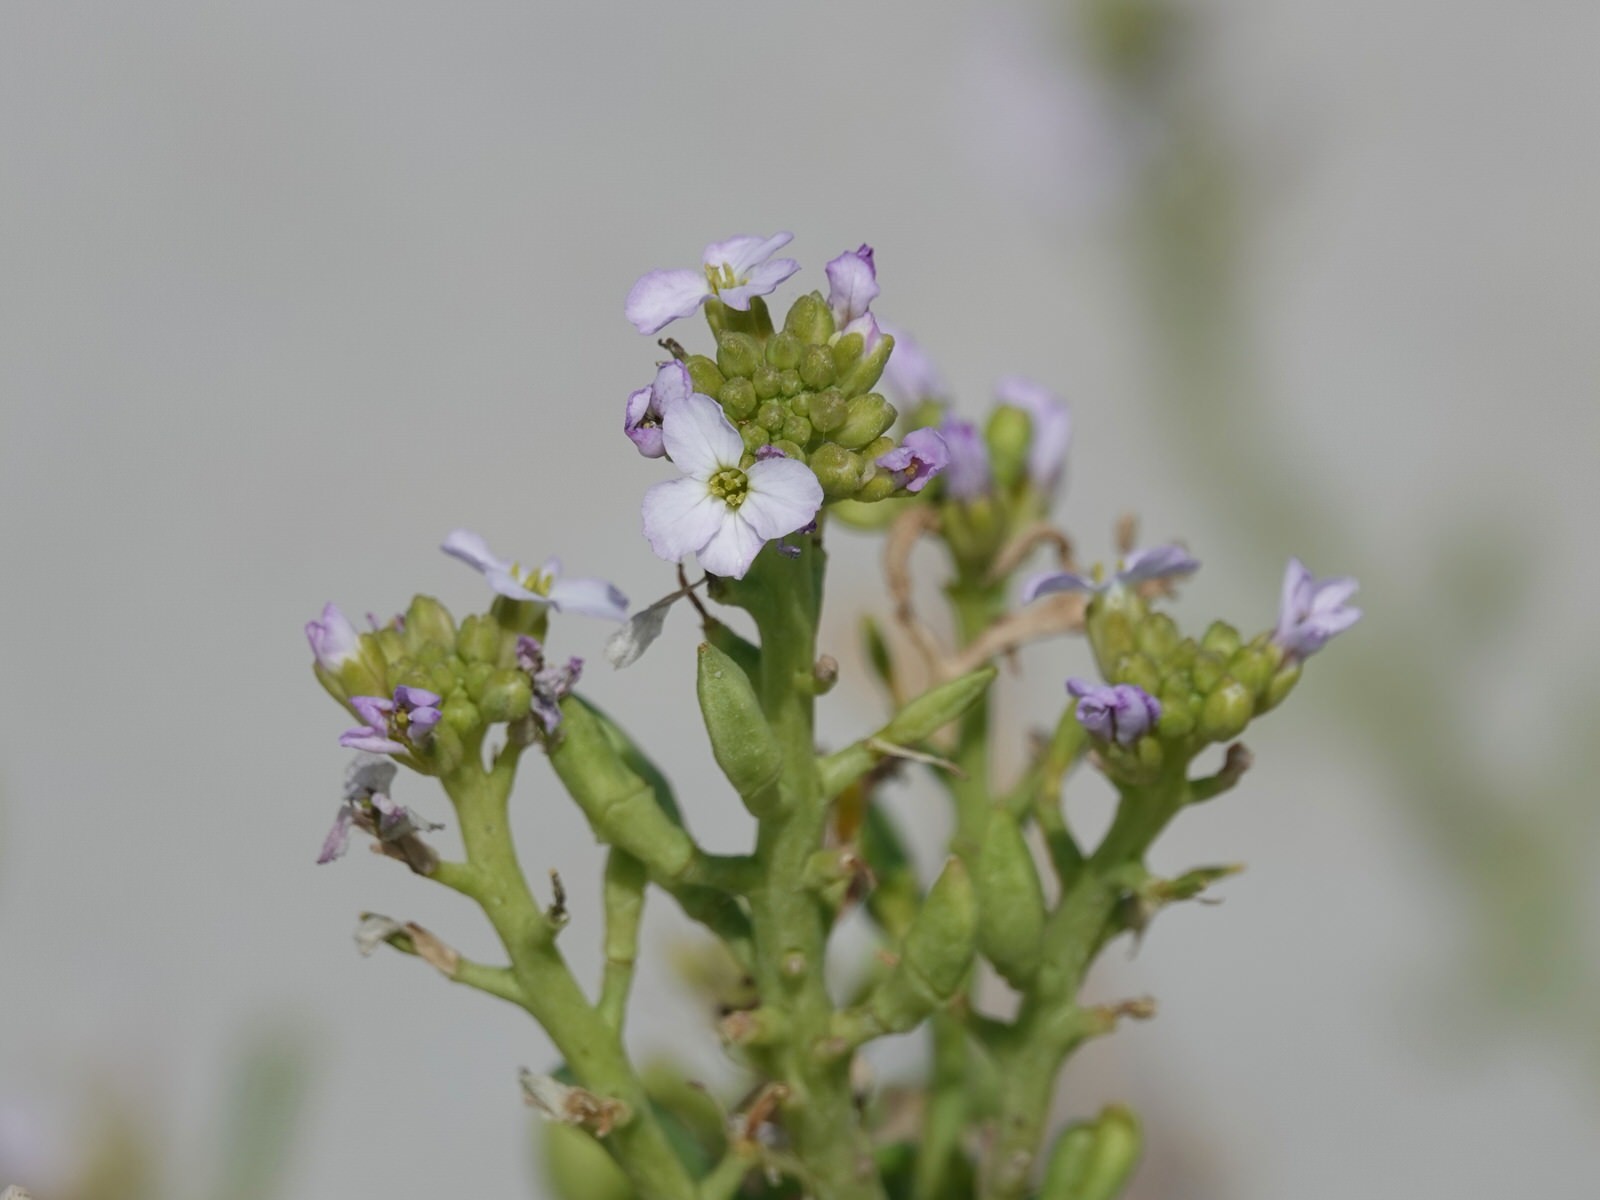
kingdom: Plantae
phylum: Tracheophyta
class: Magnoliopsida
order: Brassicales
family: Brassicaceae
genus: Cakile
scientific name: Cakile edentula
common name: American sea rocket
